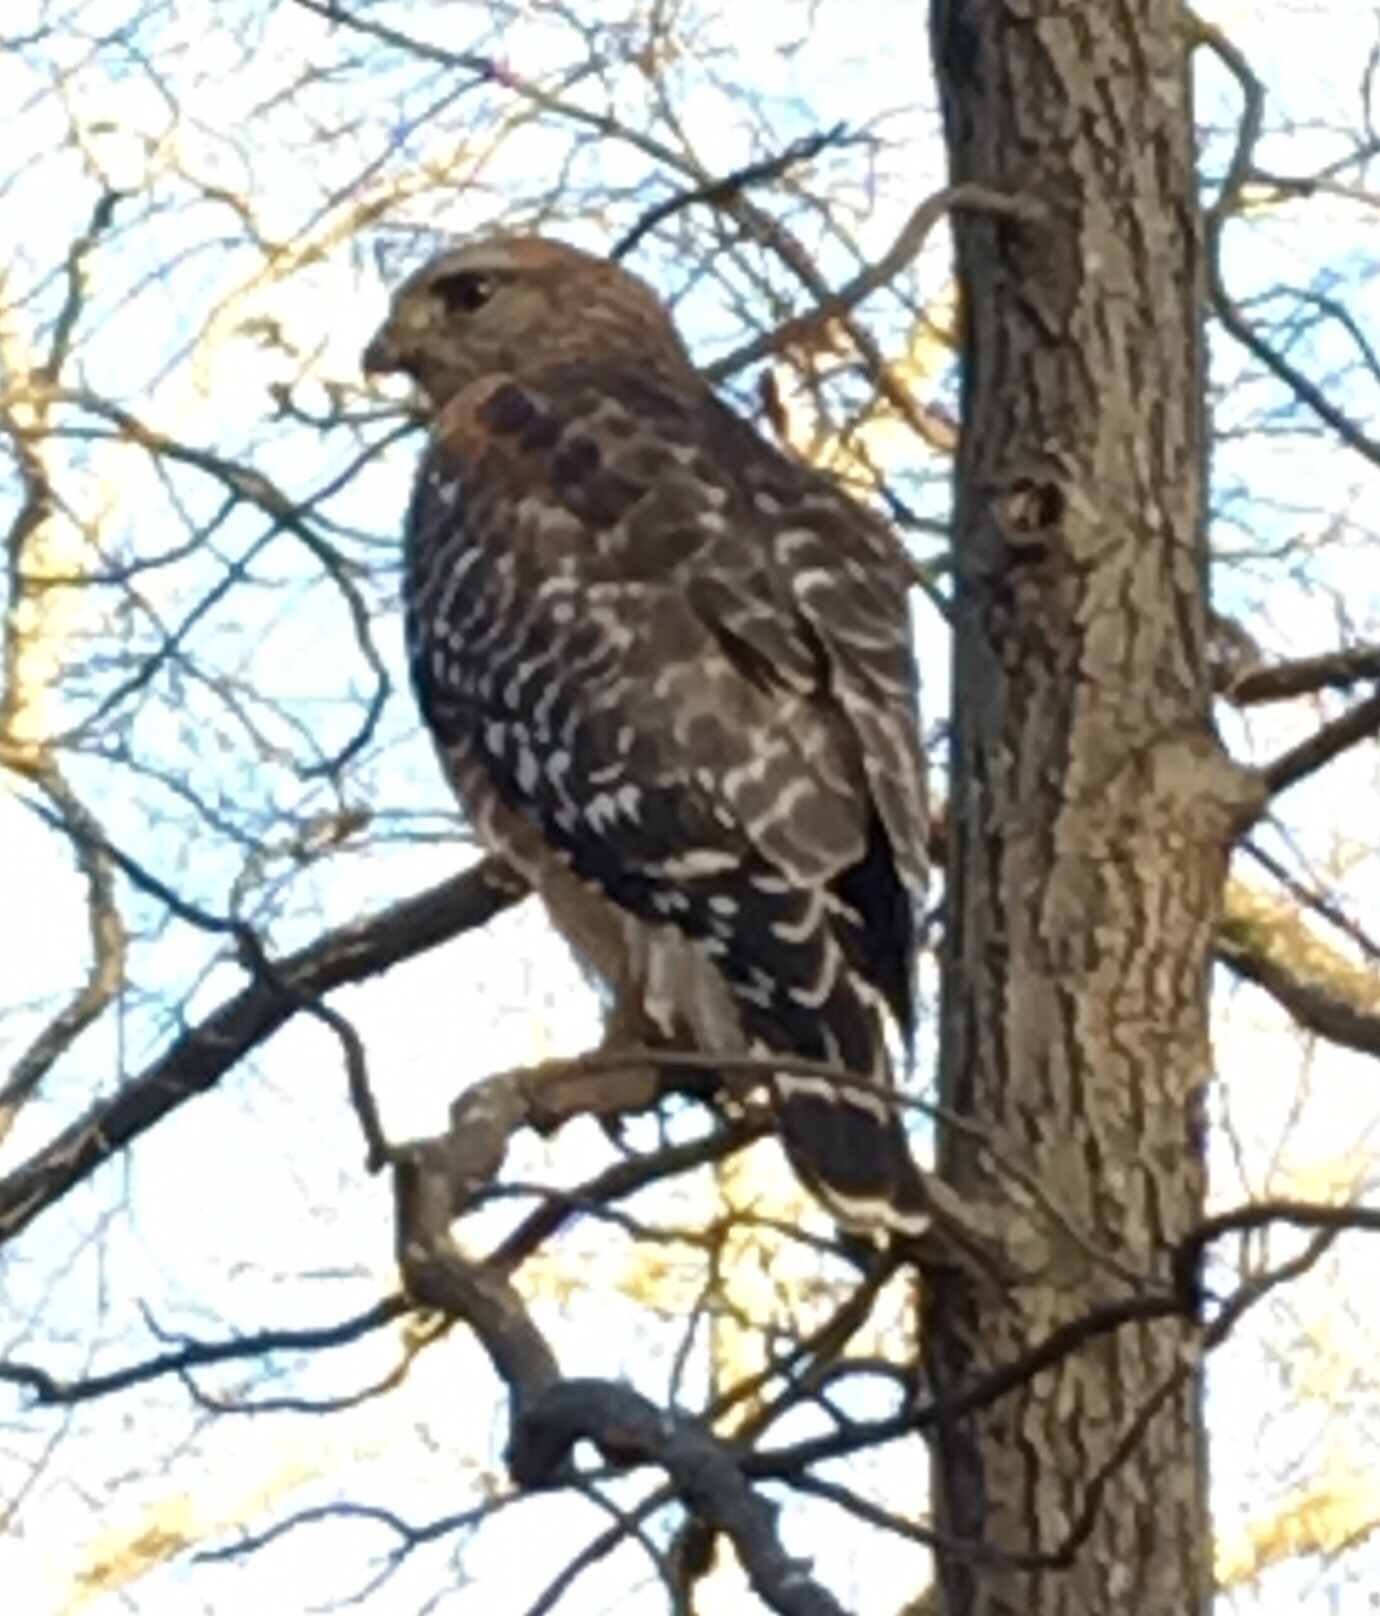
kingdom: Animalia
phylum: Chordata
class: Aves
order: Accipitriformes
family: Accipitridae
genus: Buteo
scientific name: Buteo lineatus
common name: Red-shouldered hawk
